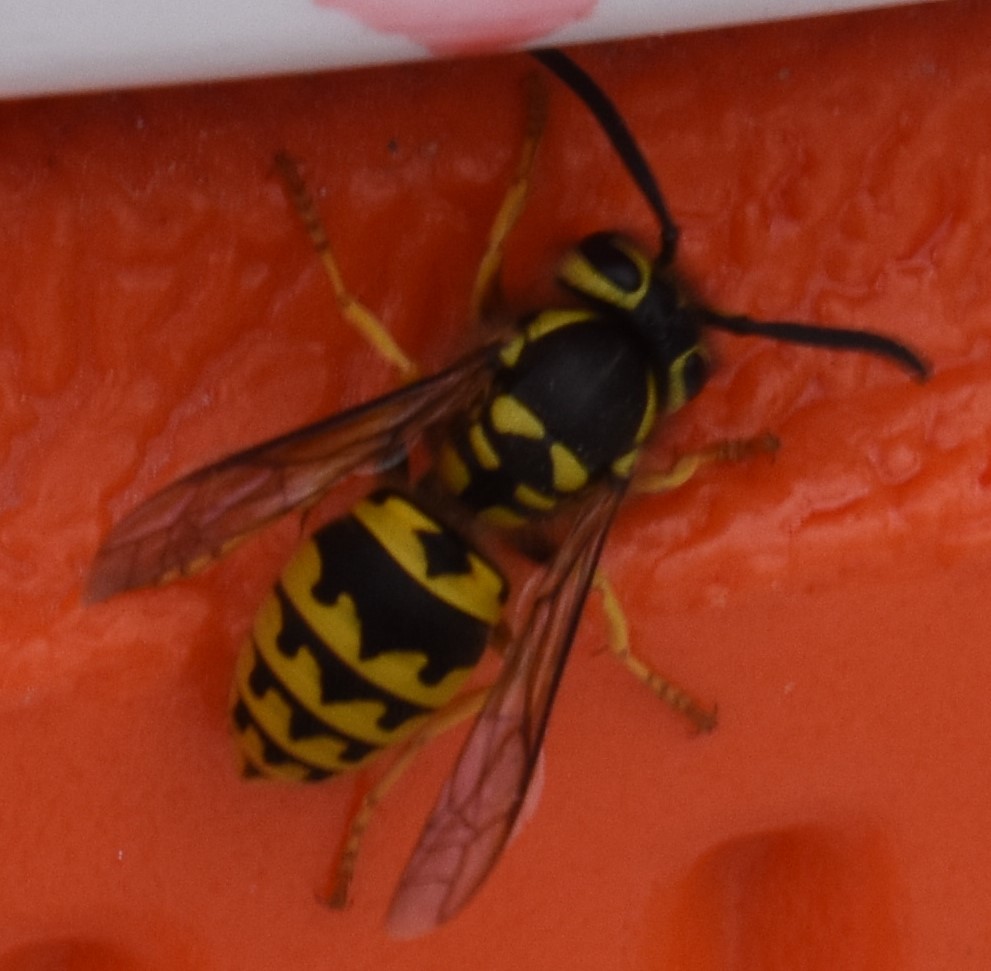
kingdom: Animalia
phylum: Arthropoda
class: Insecta
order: Hymenoptera
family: Vespidae
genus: Vespula
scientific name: Vespula pensylvanica
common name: Western yellowjacket
